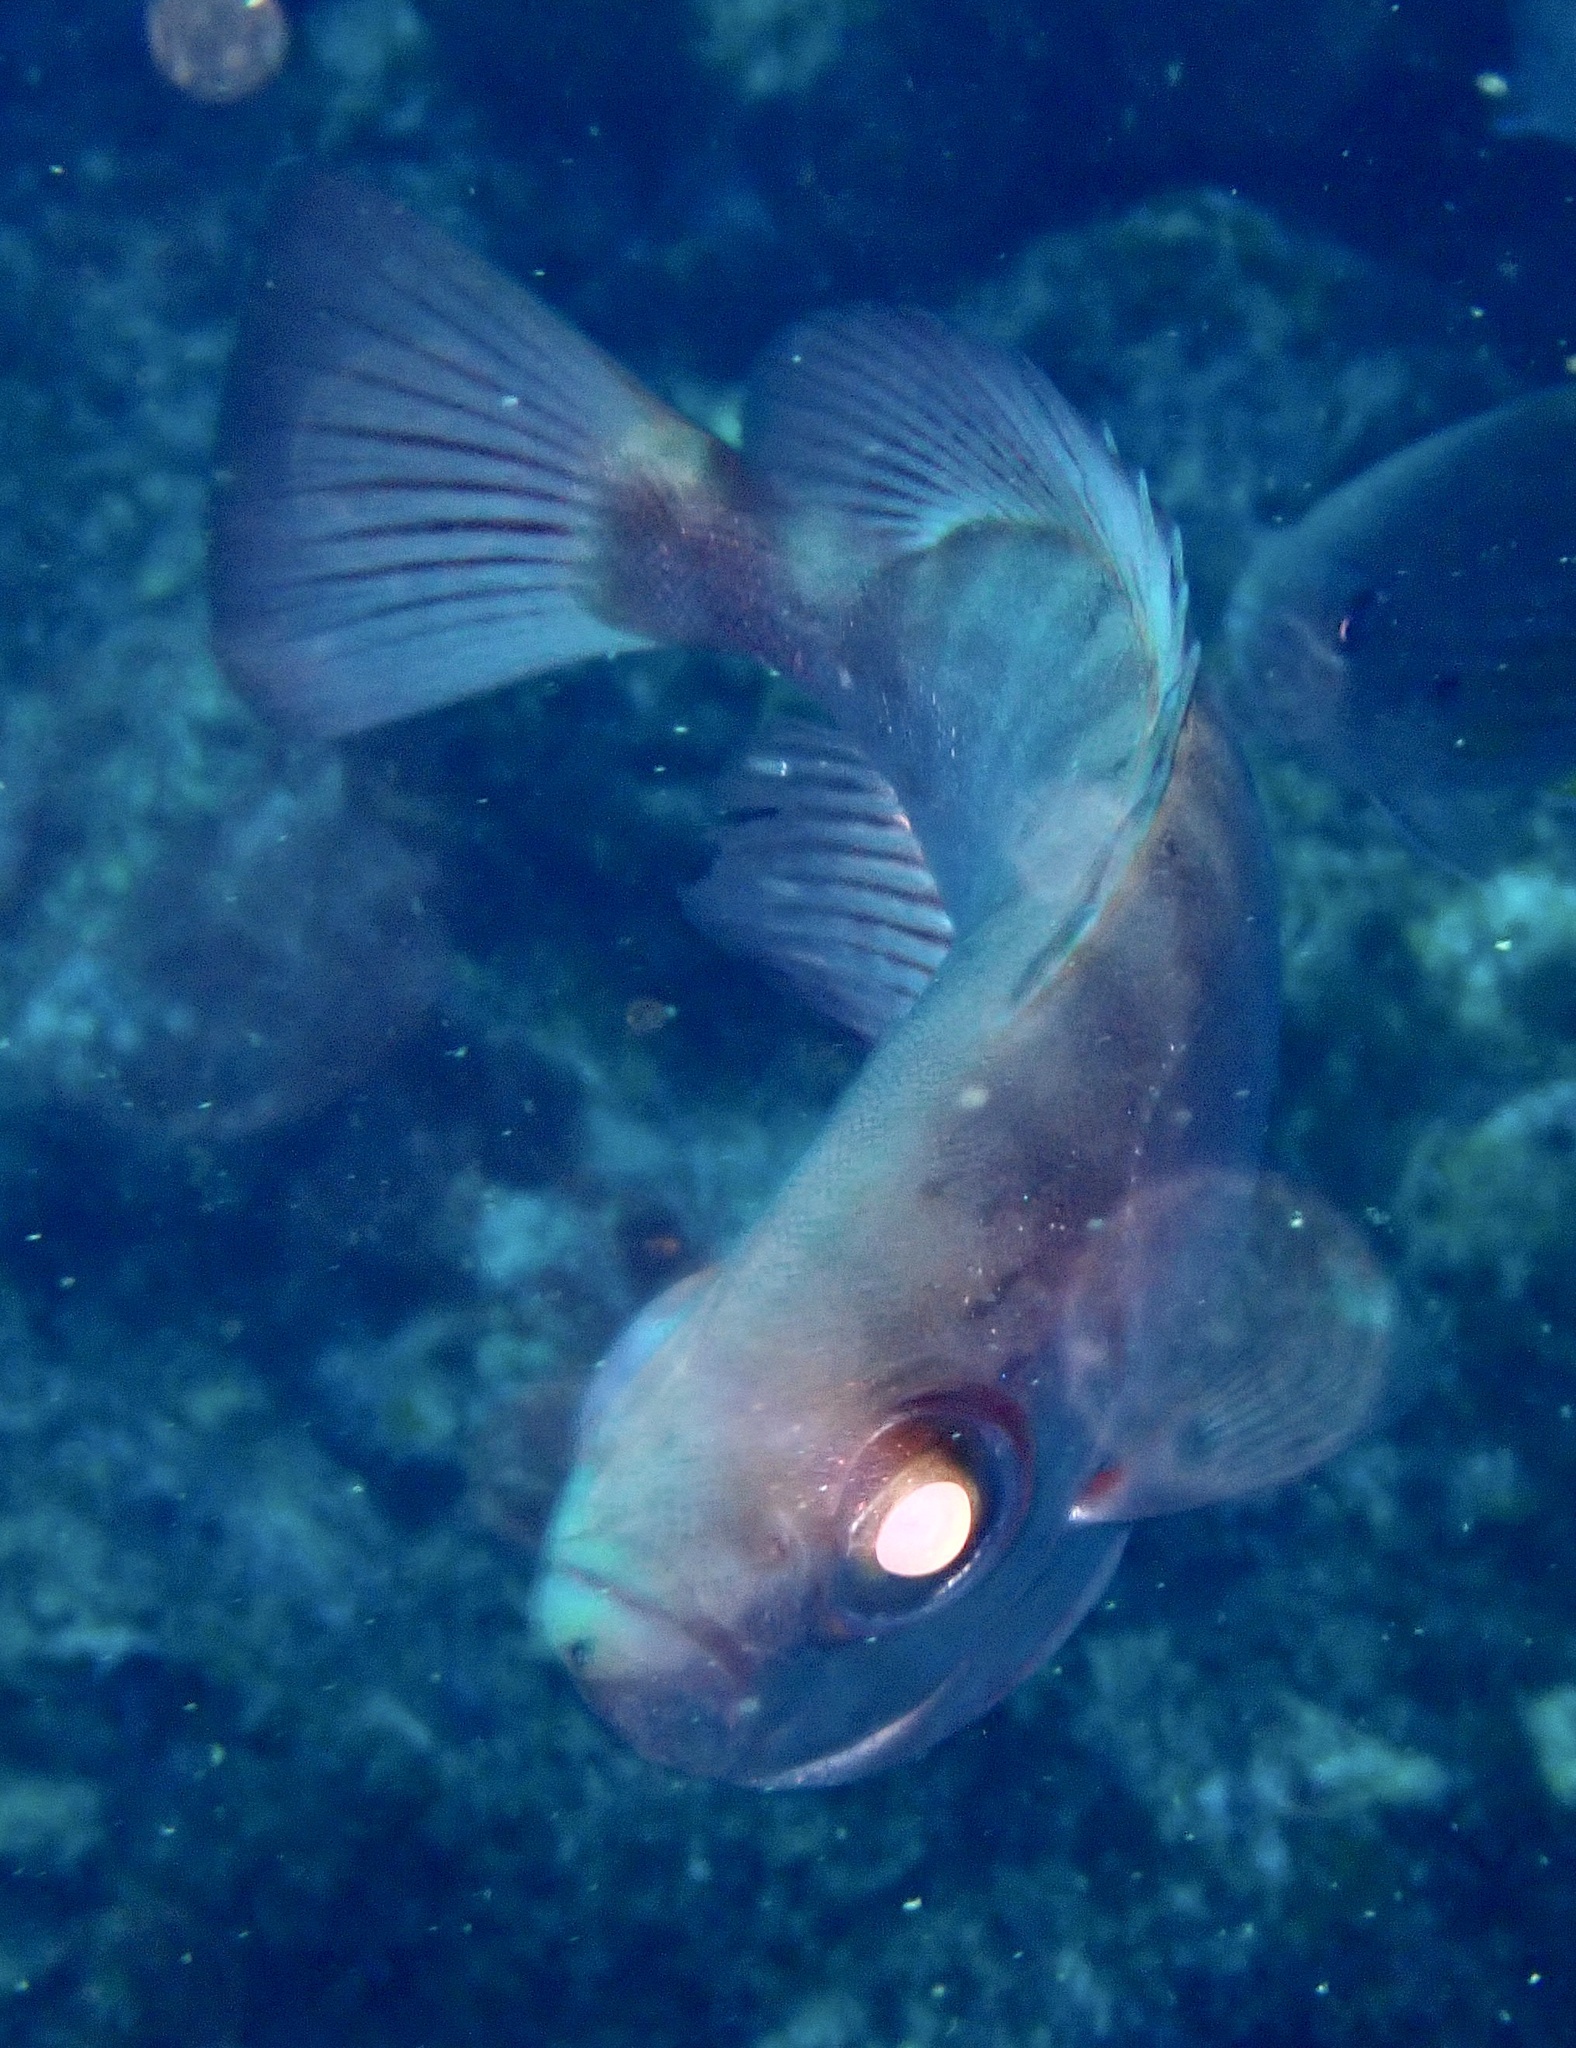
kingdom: Animalia
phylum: Chordata
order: Perciformes
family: Priacanthidae
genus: Heteropriacanthus
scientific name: Heteropriacanthus fulgens
